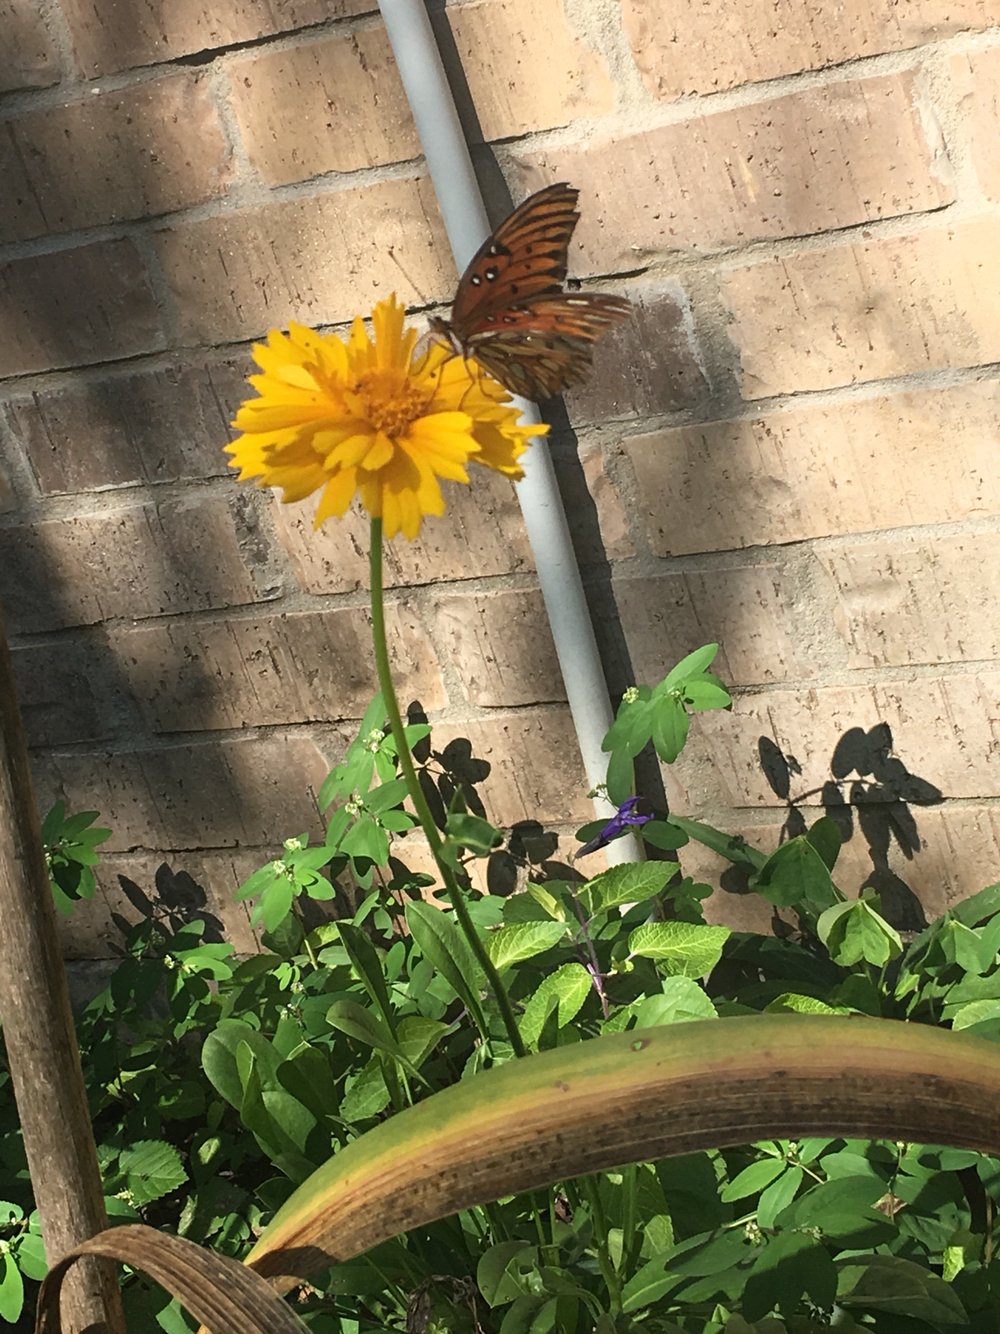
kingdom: Animalia
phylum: Arthropoda
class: Insecta
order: Lepidoptera
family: Nymphalidae
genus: Dione
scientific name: Dione vanillae
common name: Gulf fritillary
